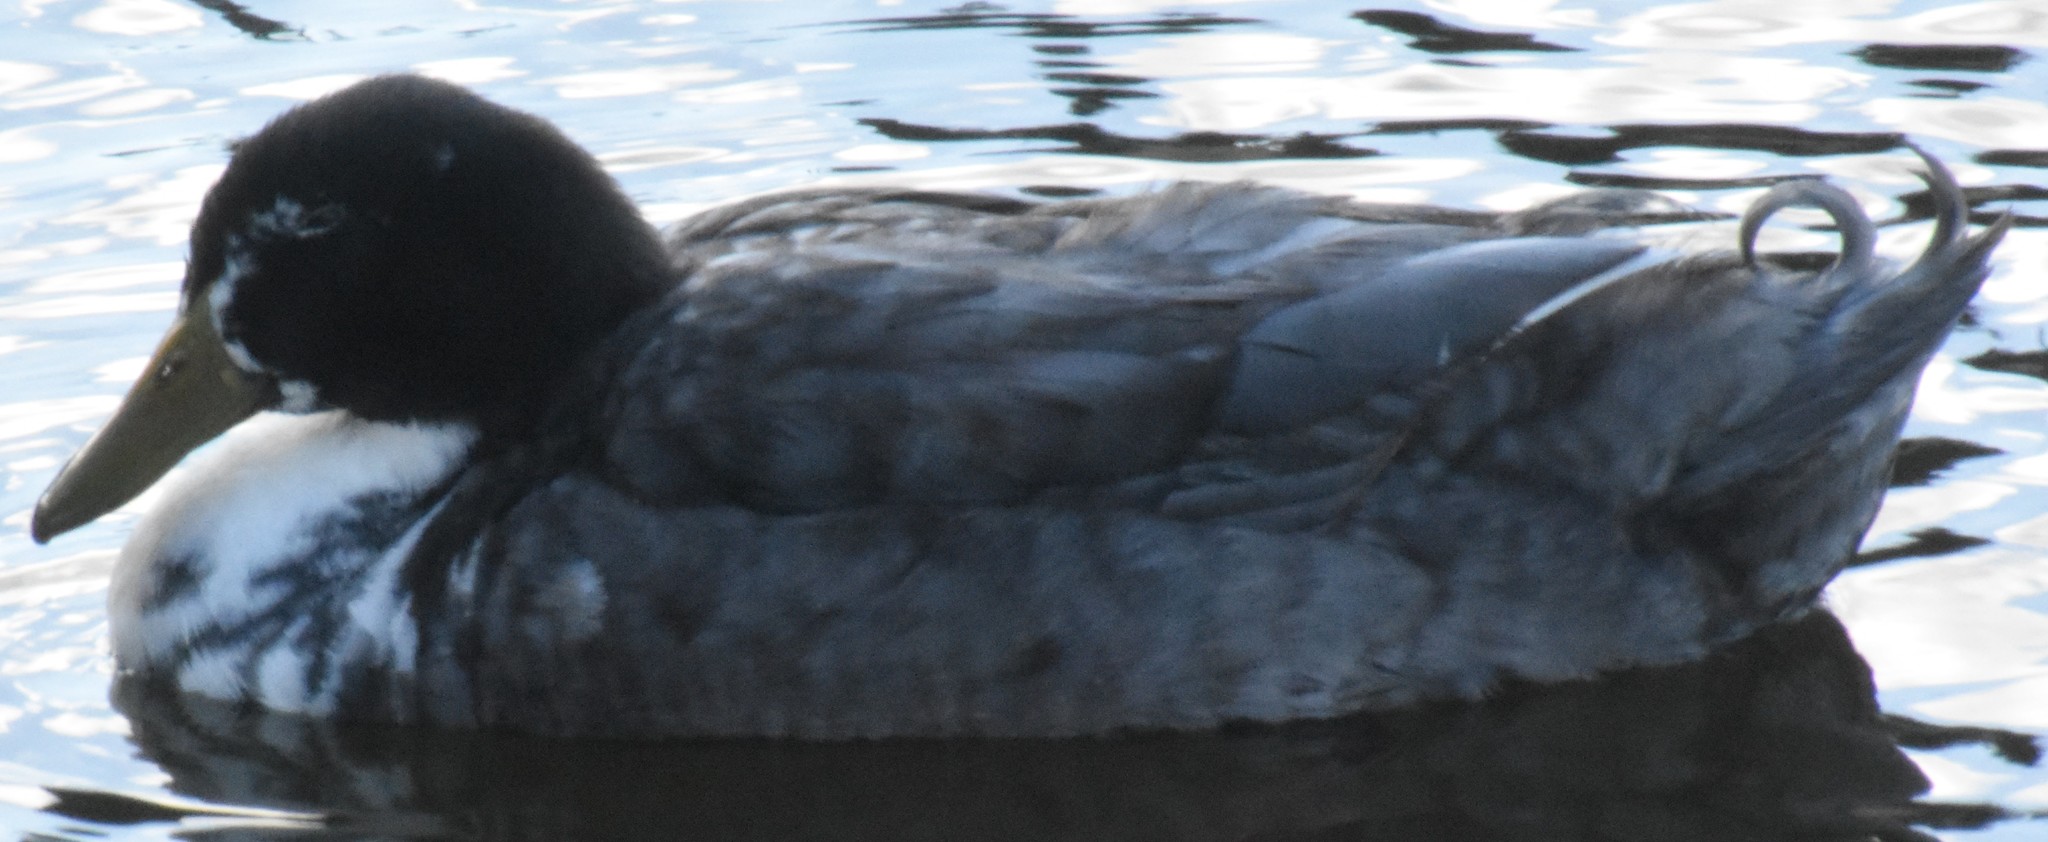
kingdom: Animalia
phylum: Chordata
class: Aves
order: Anseriformes
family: Anatidae
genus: Anas
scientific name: Anas platyrhynchos
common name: Mallard
